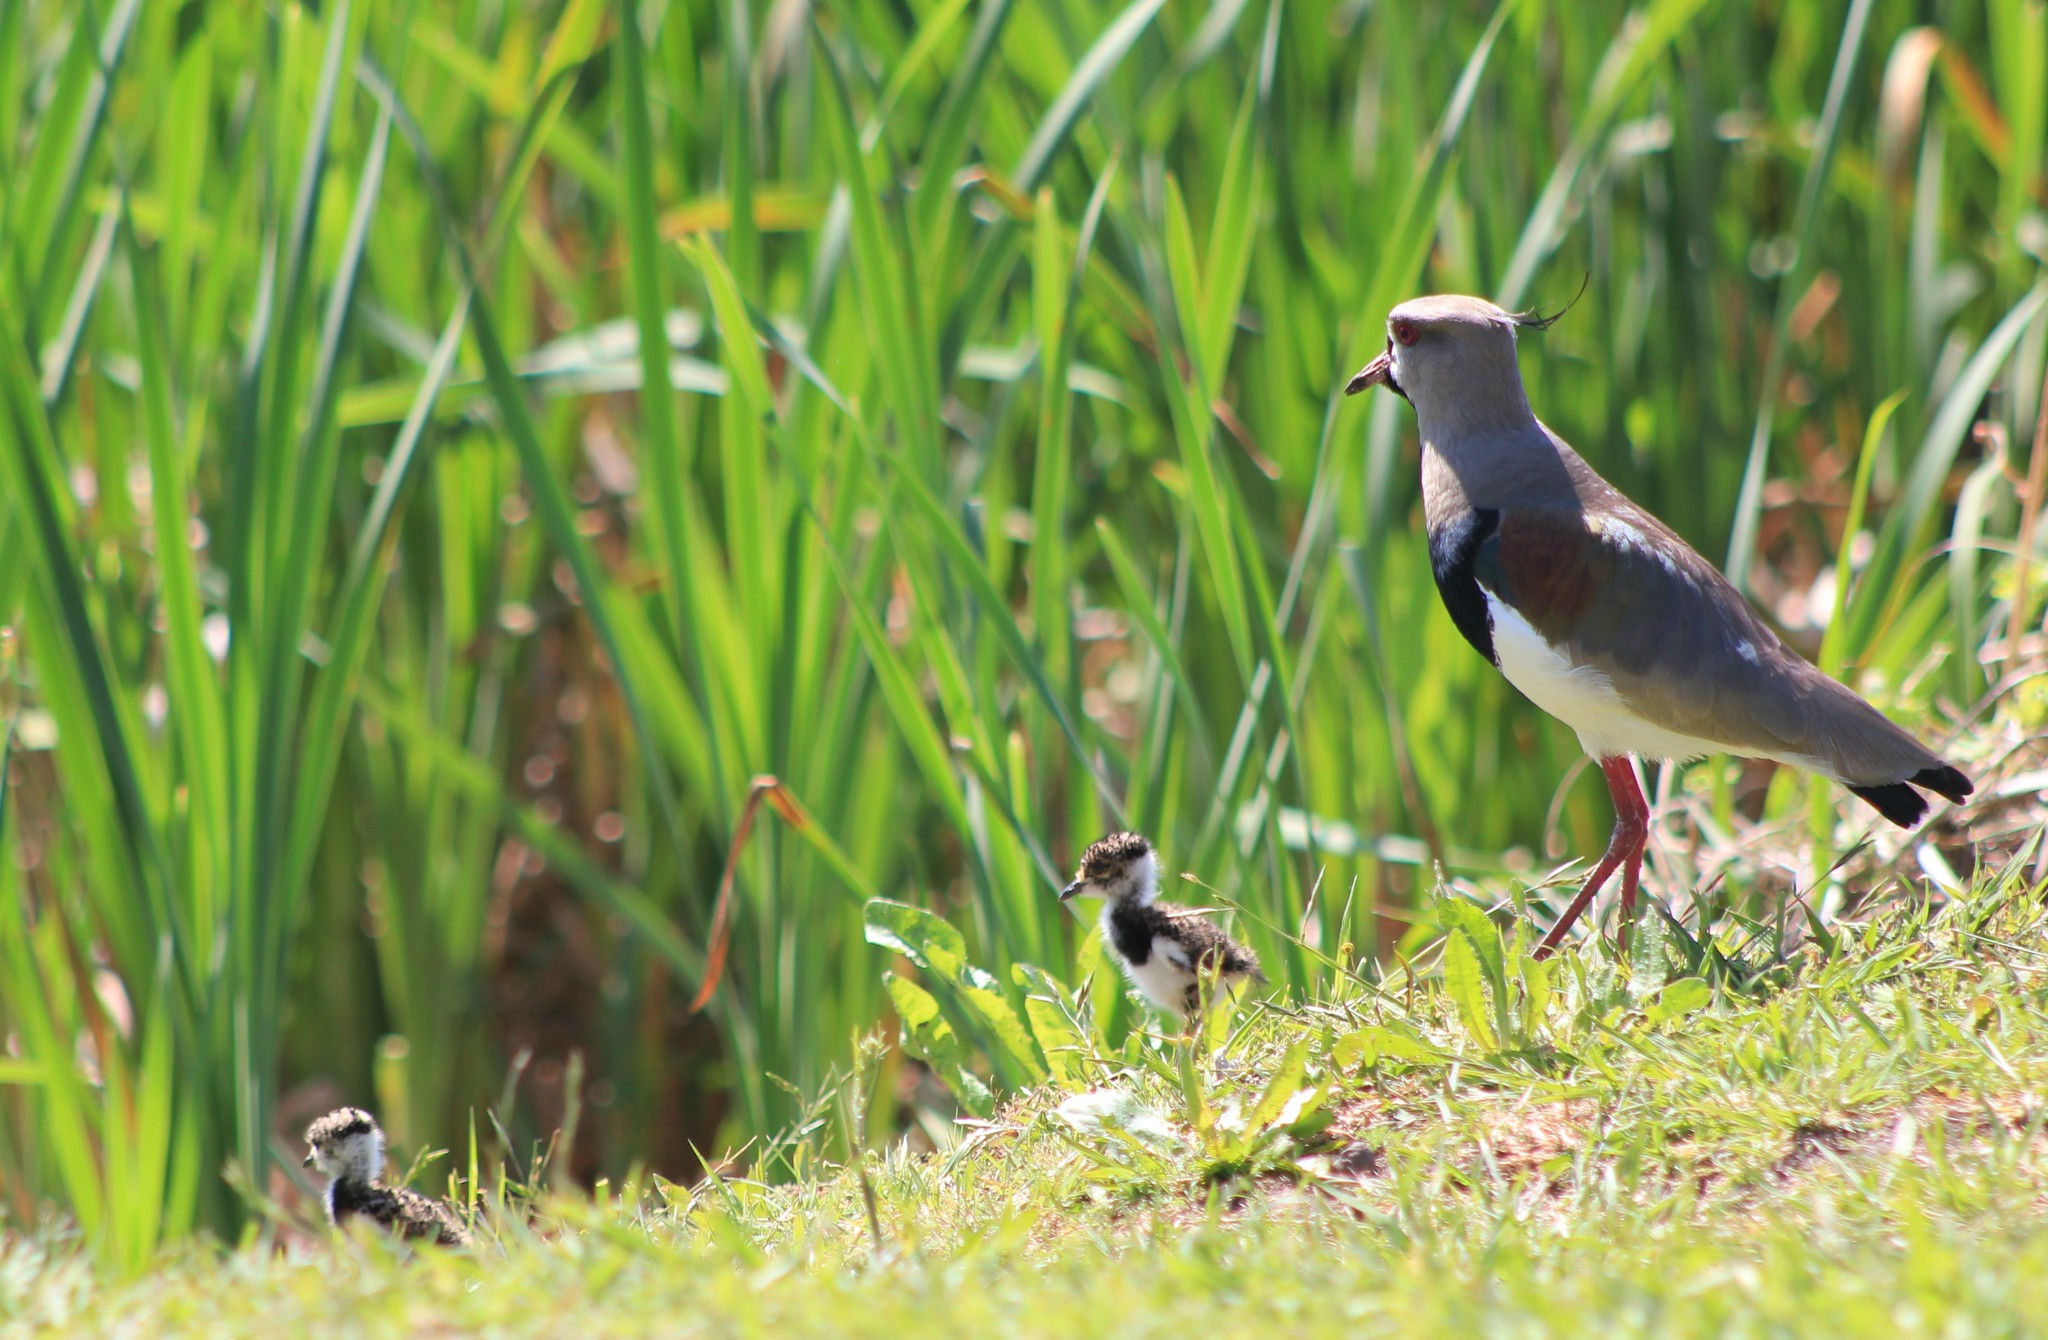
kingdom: Animalia
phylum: Chordata
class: Aves
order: Charadriiformes
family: Charadriidae
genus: Vanellus
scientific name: Vanellus chilensis
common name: Southern lapwing
